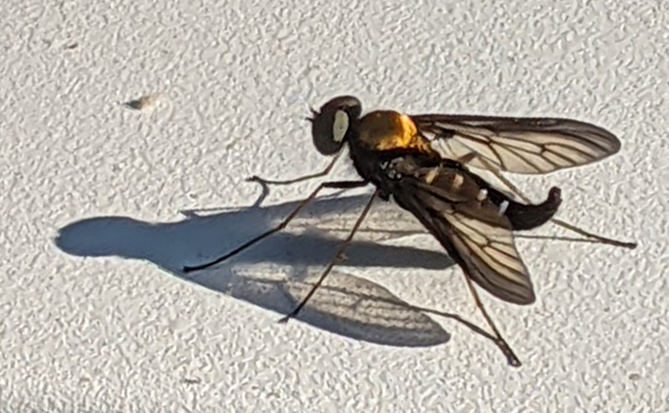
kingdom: Animalia
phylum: Arthropoda
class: Insecta
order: Diptera
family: Rhagionidae
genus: Chrysopilus
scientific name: Chrysopilus thoracicus
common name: Golden-backed snipe fly
